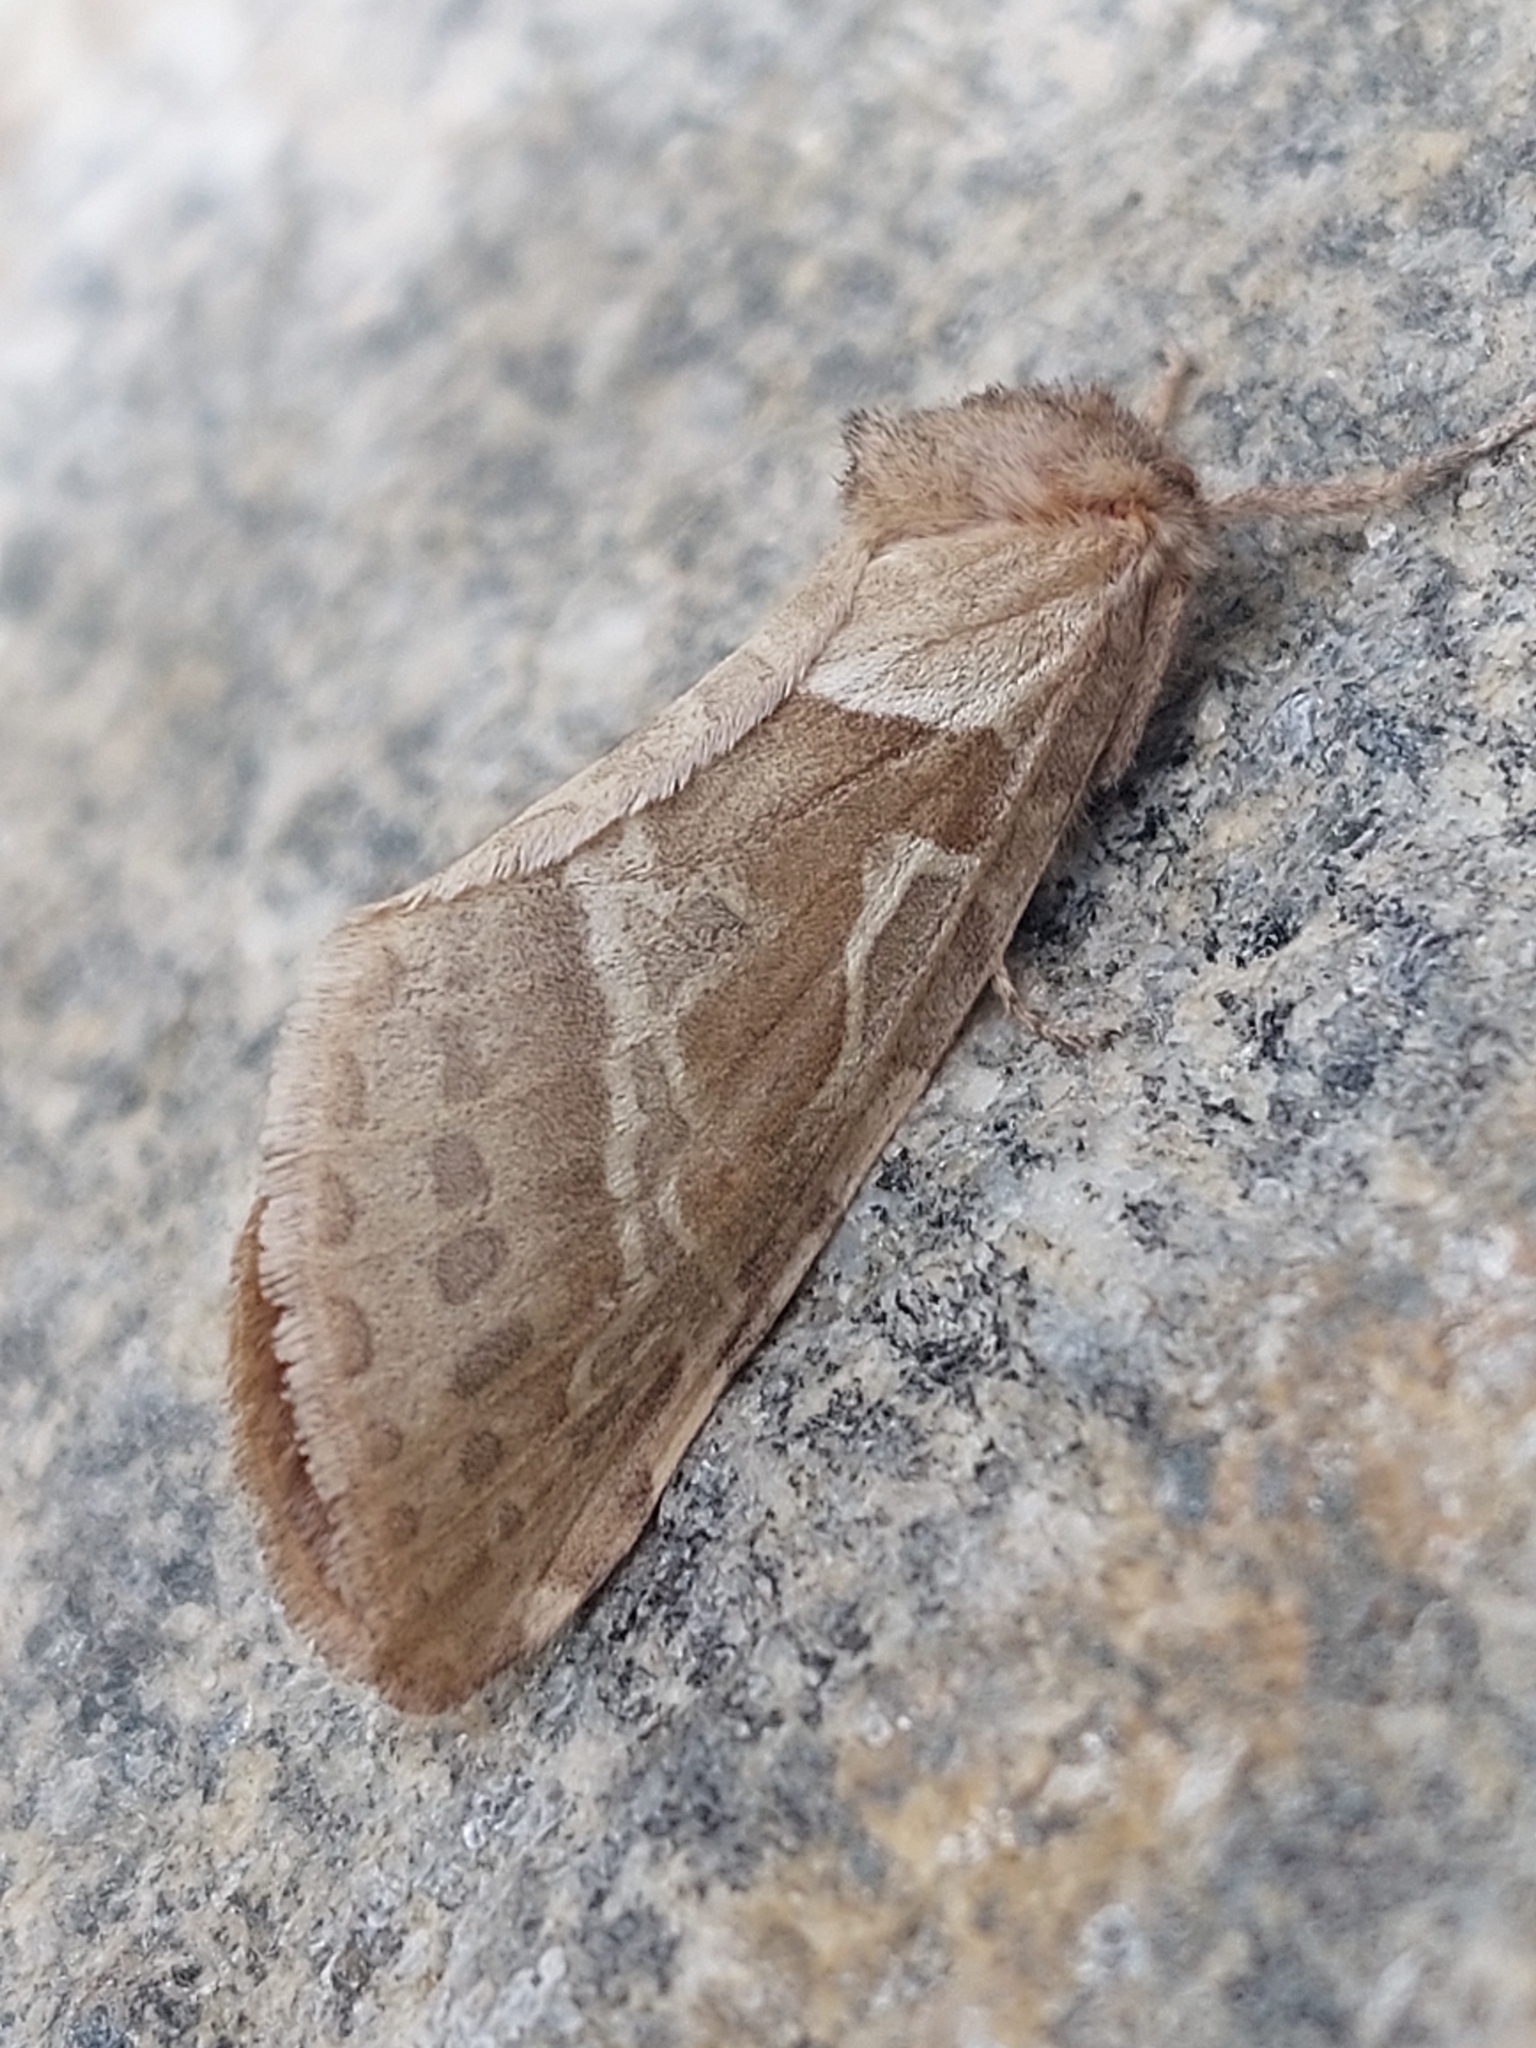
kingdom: Animalia
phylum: Arthropoda
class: Insecta
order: Lepidoptera
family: Hepialidae
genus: Triodia
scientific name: Triodia sylvina
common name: Orange swift
